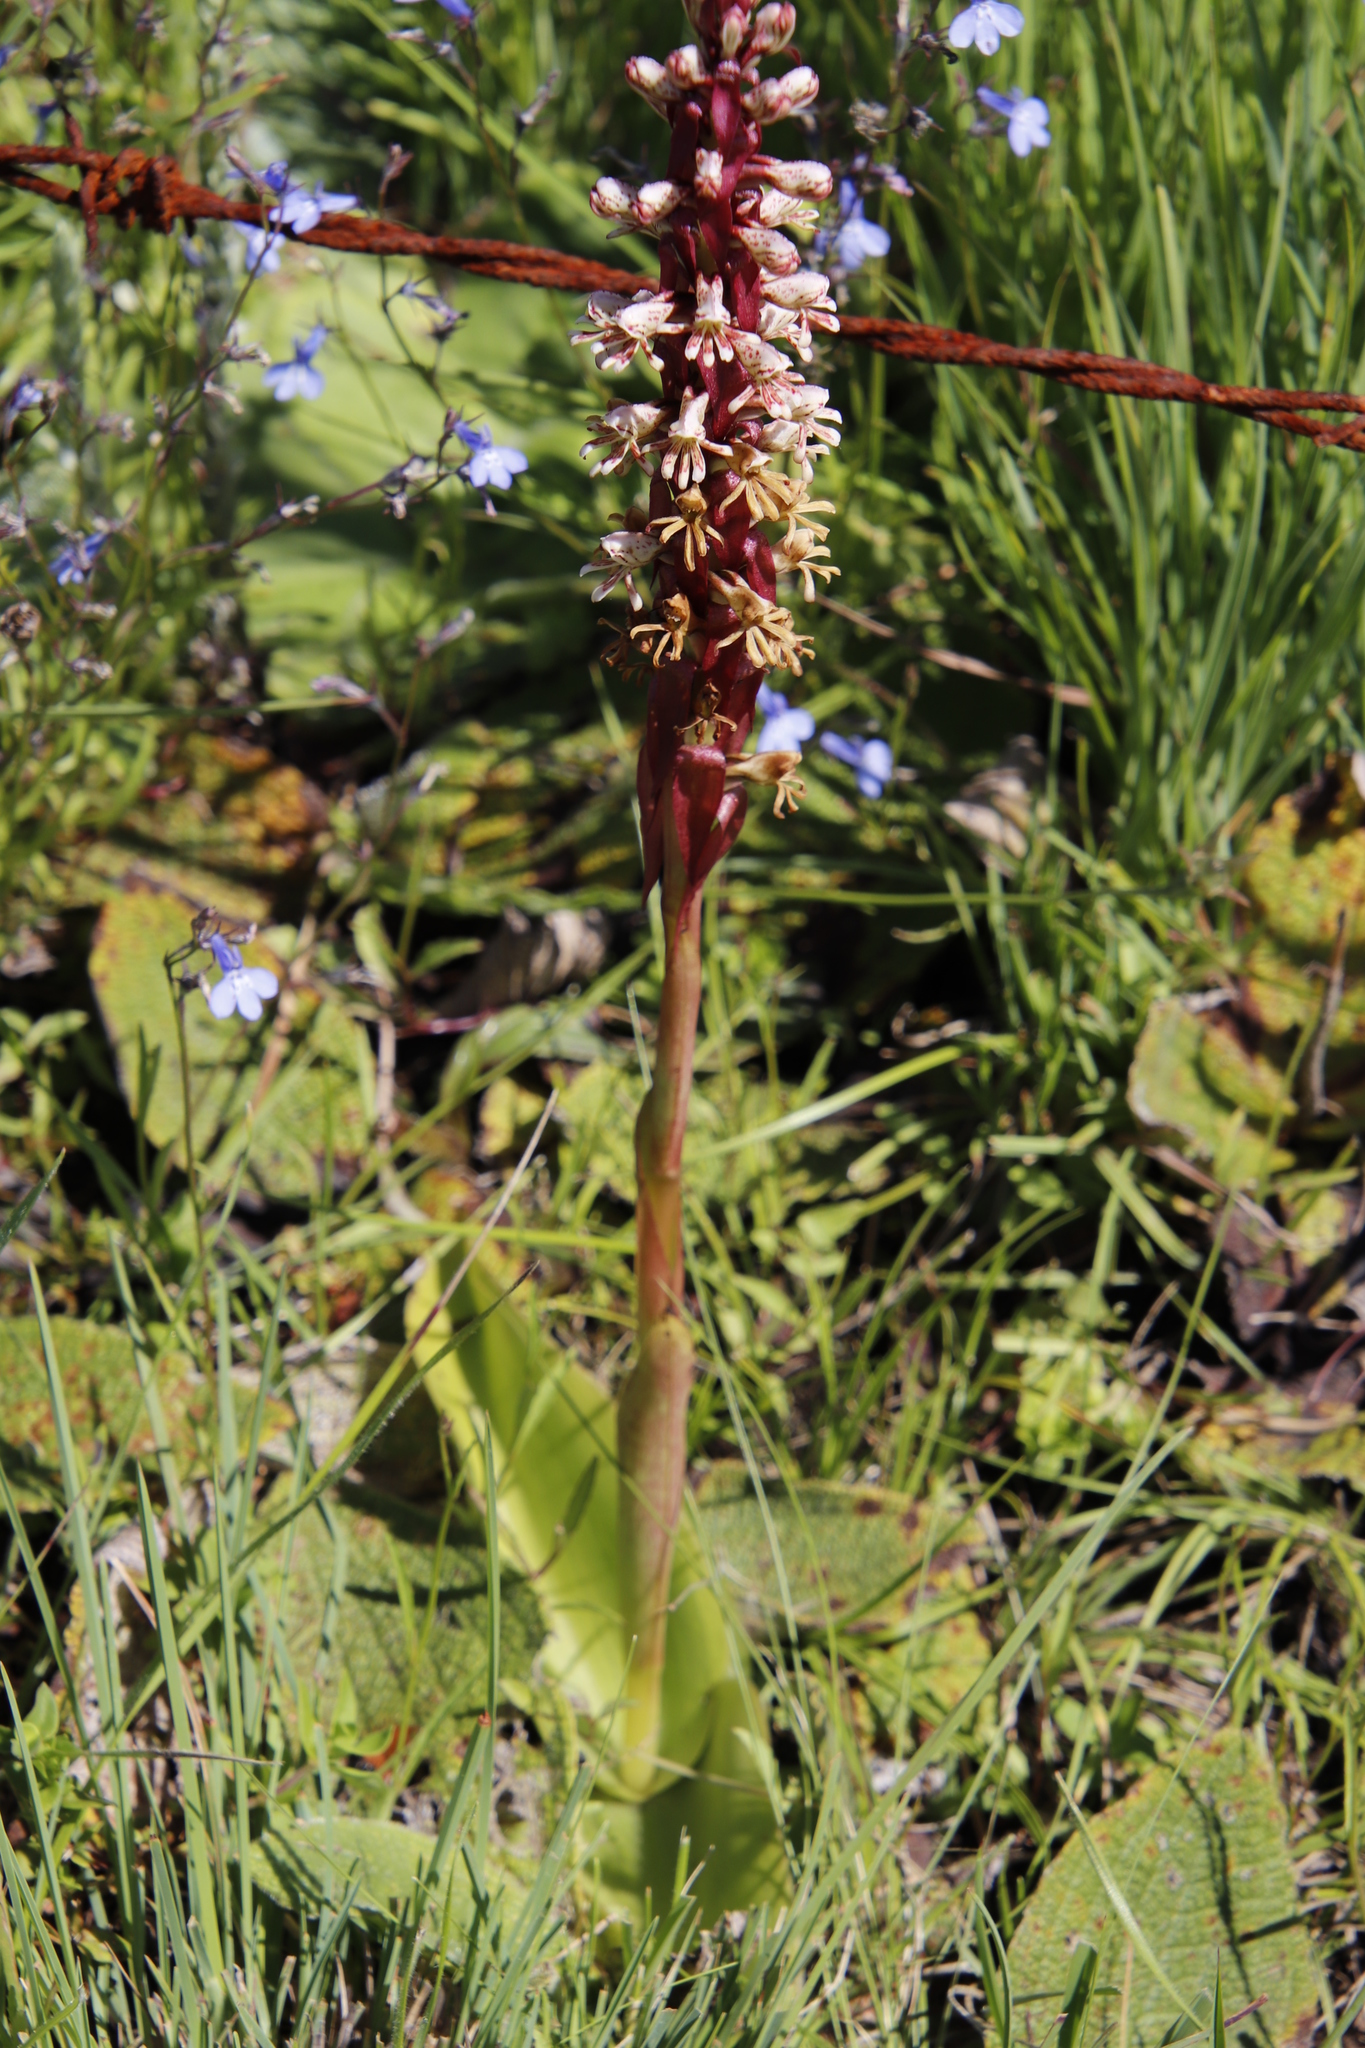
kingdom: Plantae
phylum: Tracheophyta
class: Liliopsida
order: Asparagales
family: Orchidaceae
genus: Satyrium
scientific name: Satyrium cristatum
